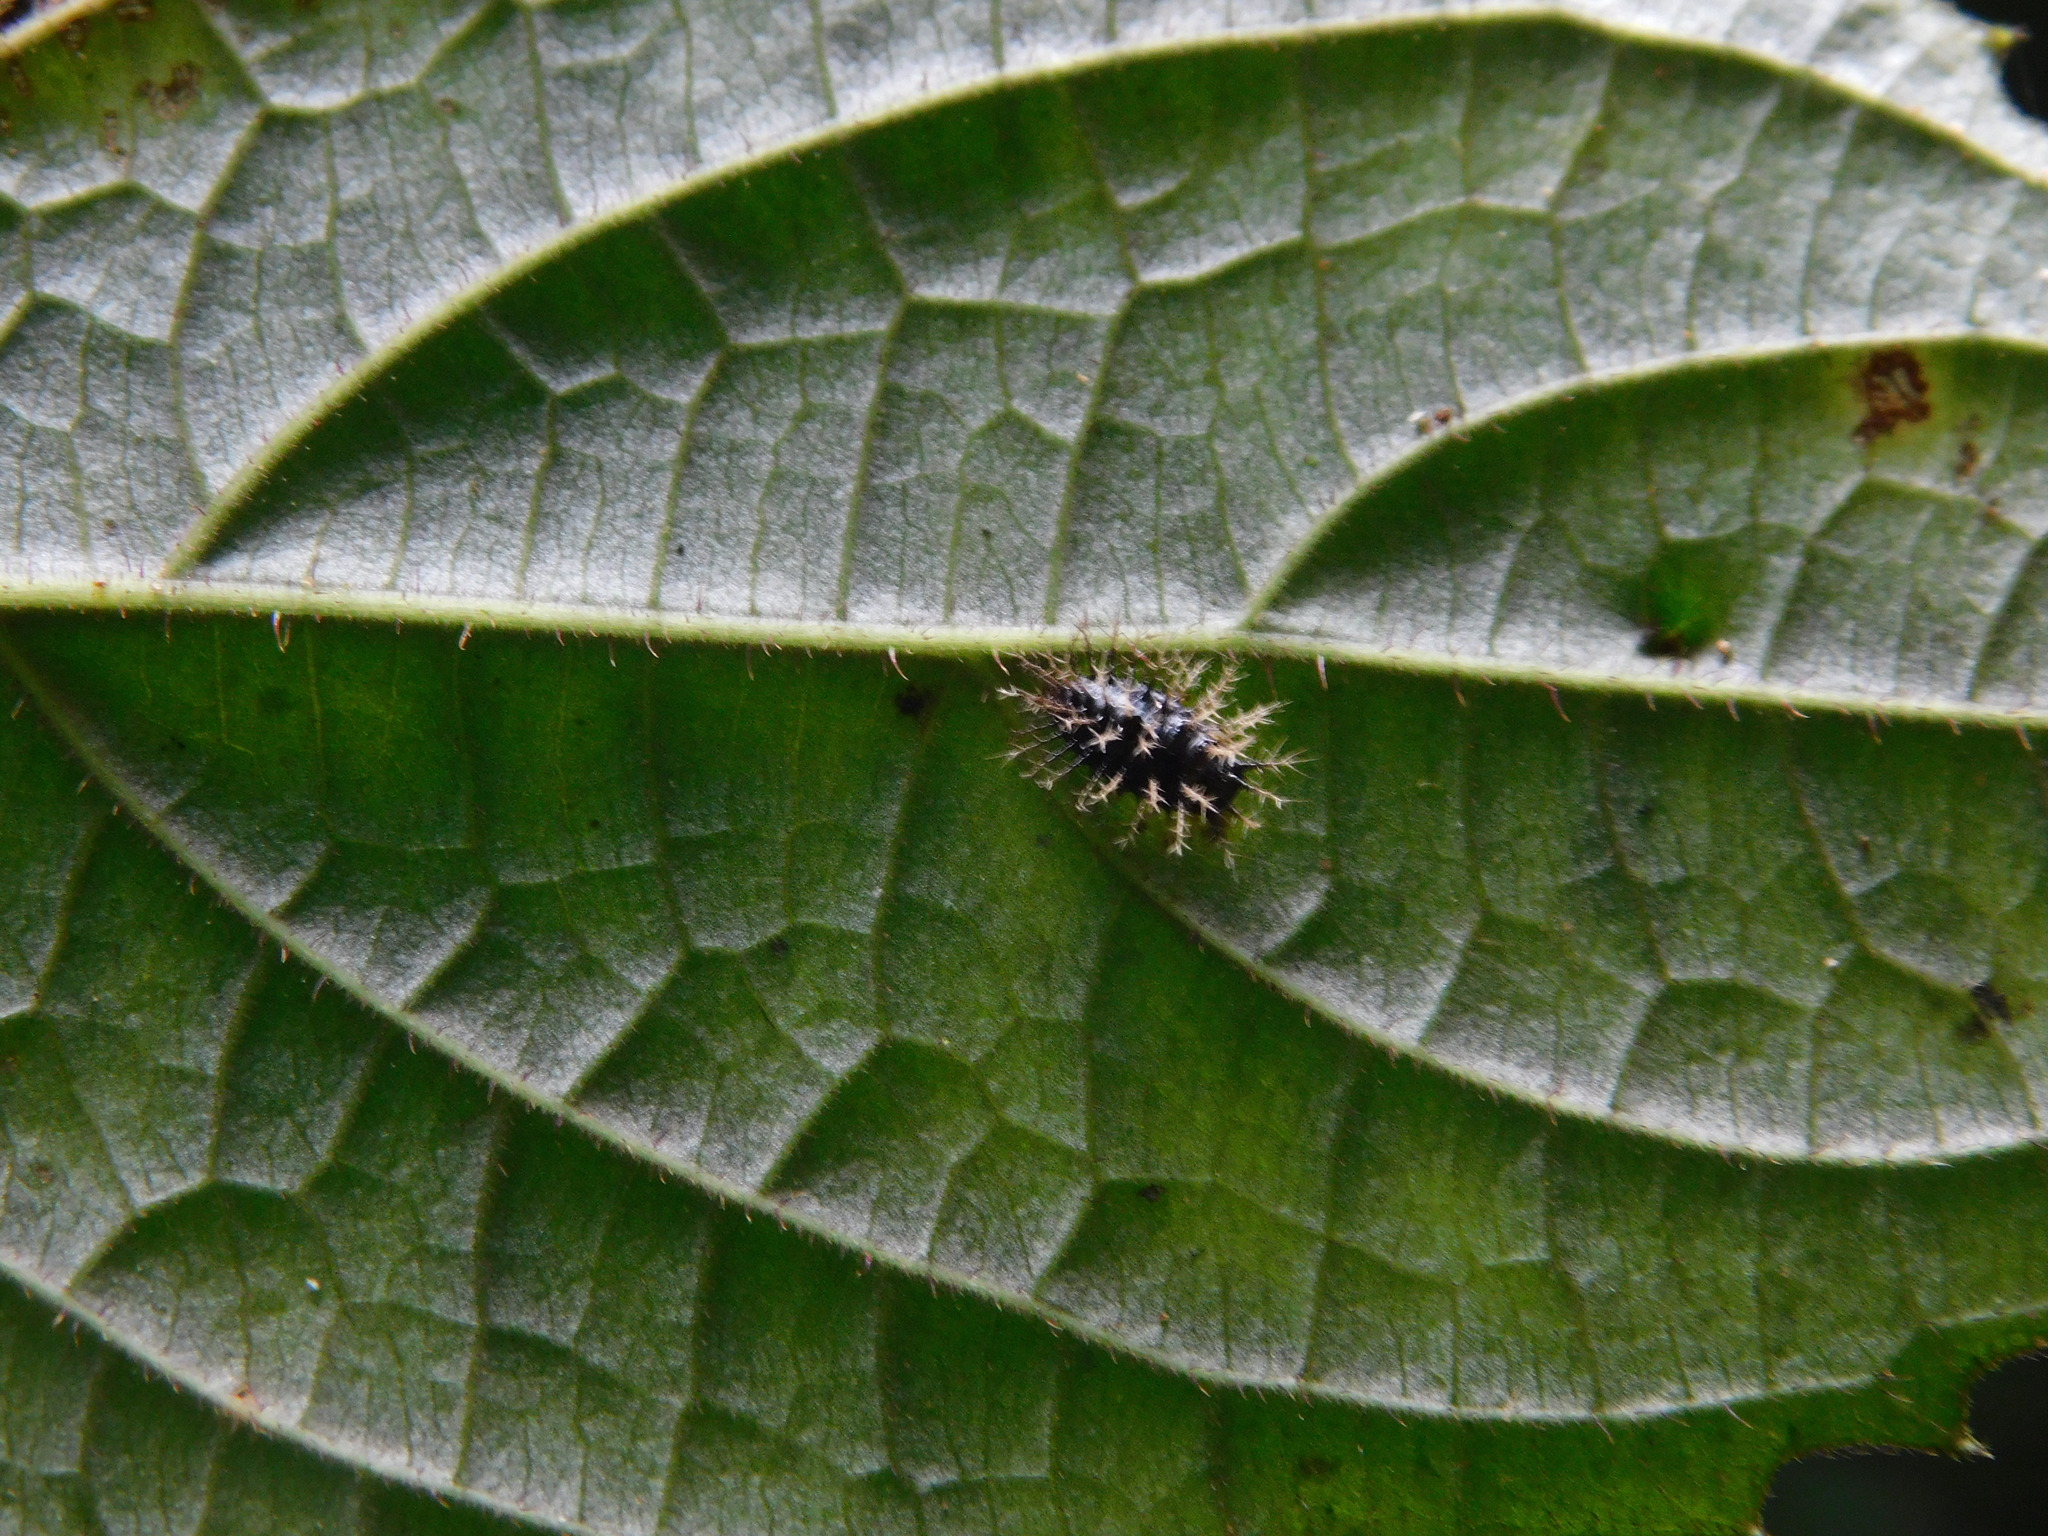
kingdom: Animalia
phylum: Arthropoda
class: Insecta
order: Coleoptera
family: Coccinellidae
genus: Henosepilachna
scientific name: Henosepilachna
